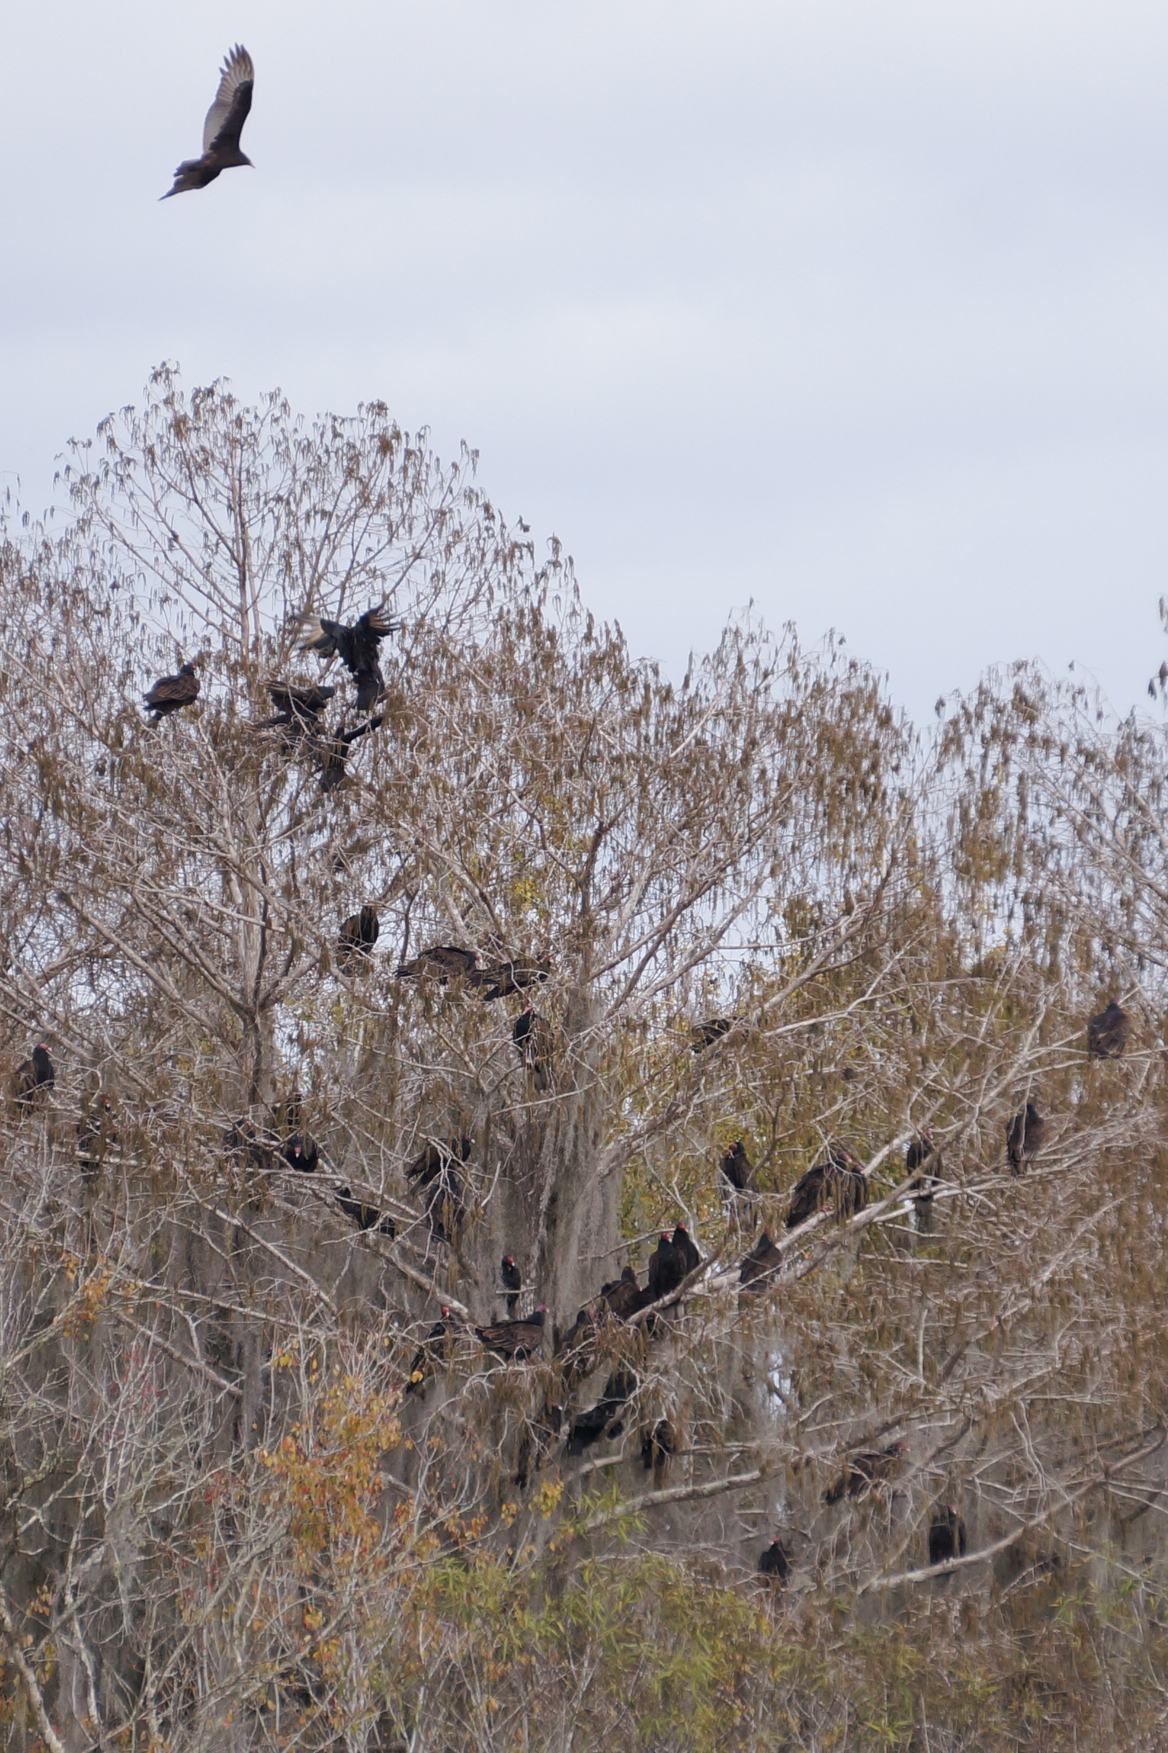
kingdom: Animalia
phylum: Chordata
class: Aves
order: Accipitriformes
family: Cathartidae
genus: Cathartes
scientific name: Cathartes aura
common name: Turkey vulture
